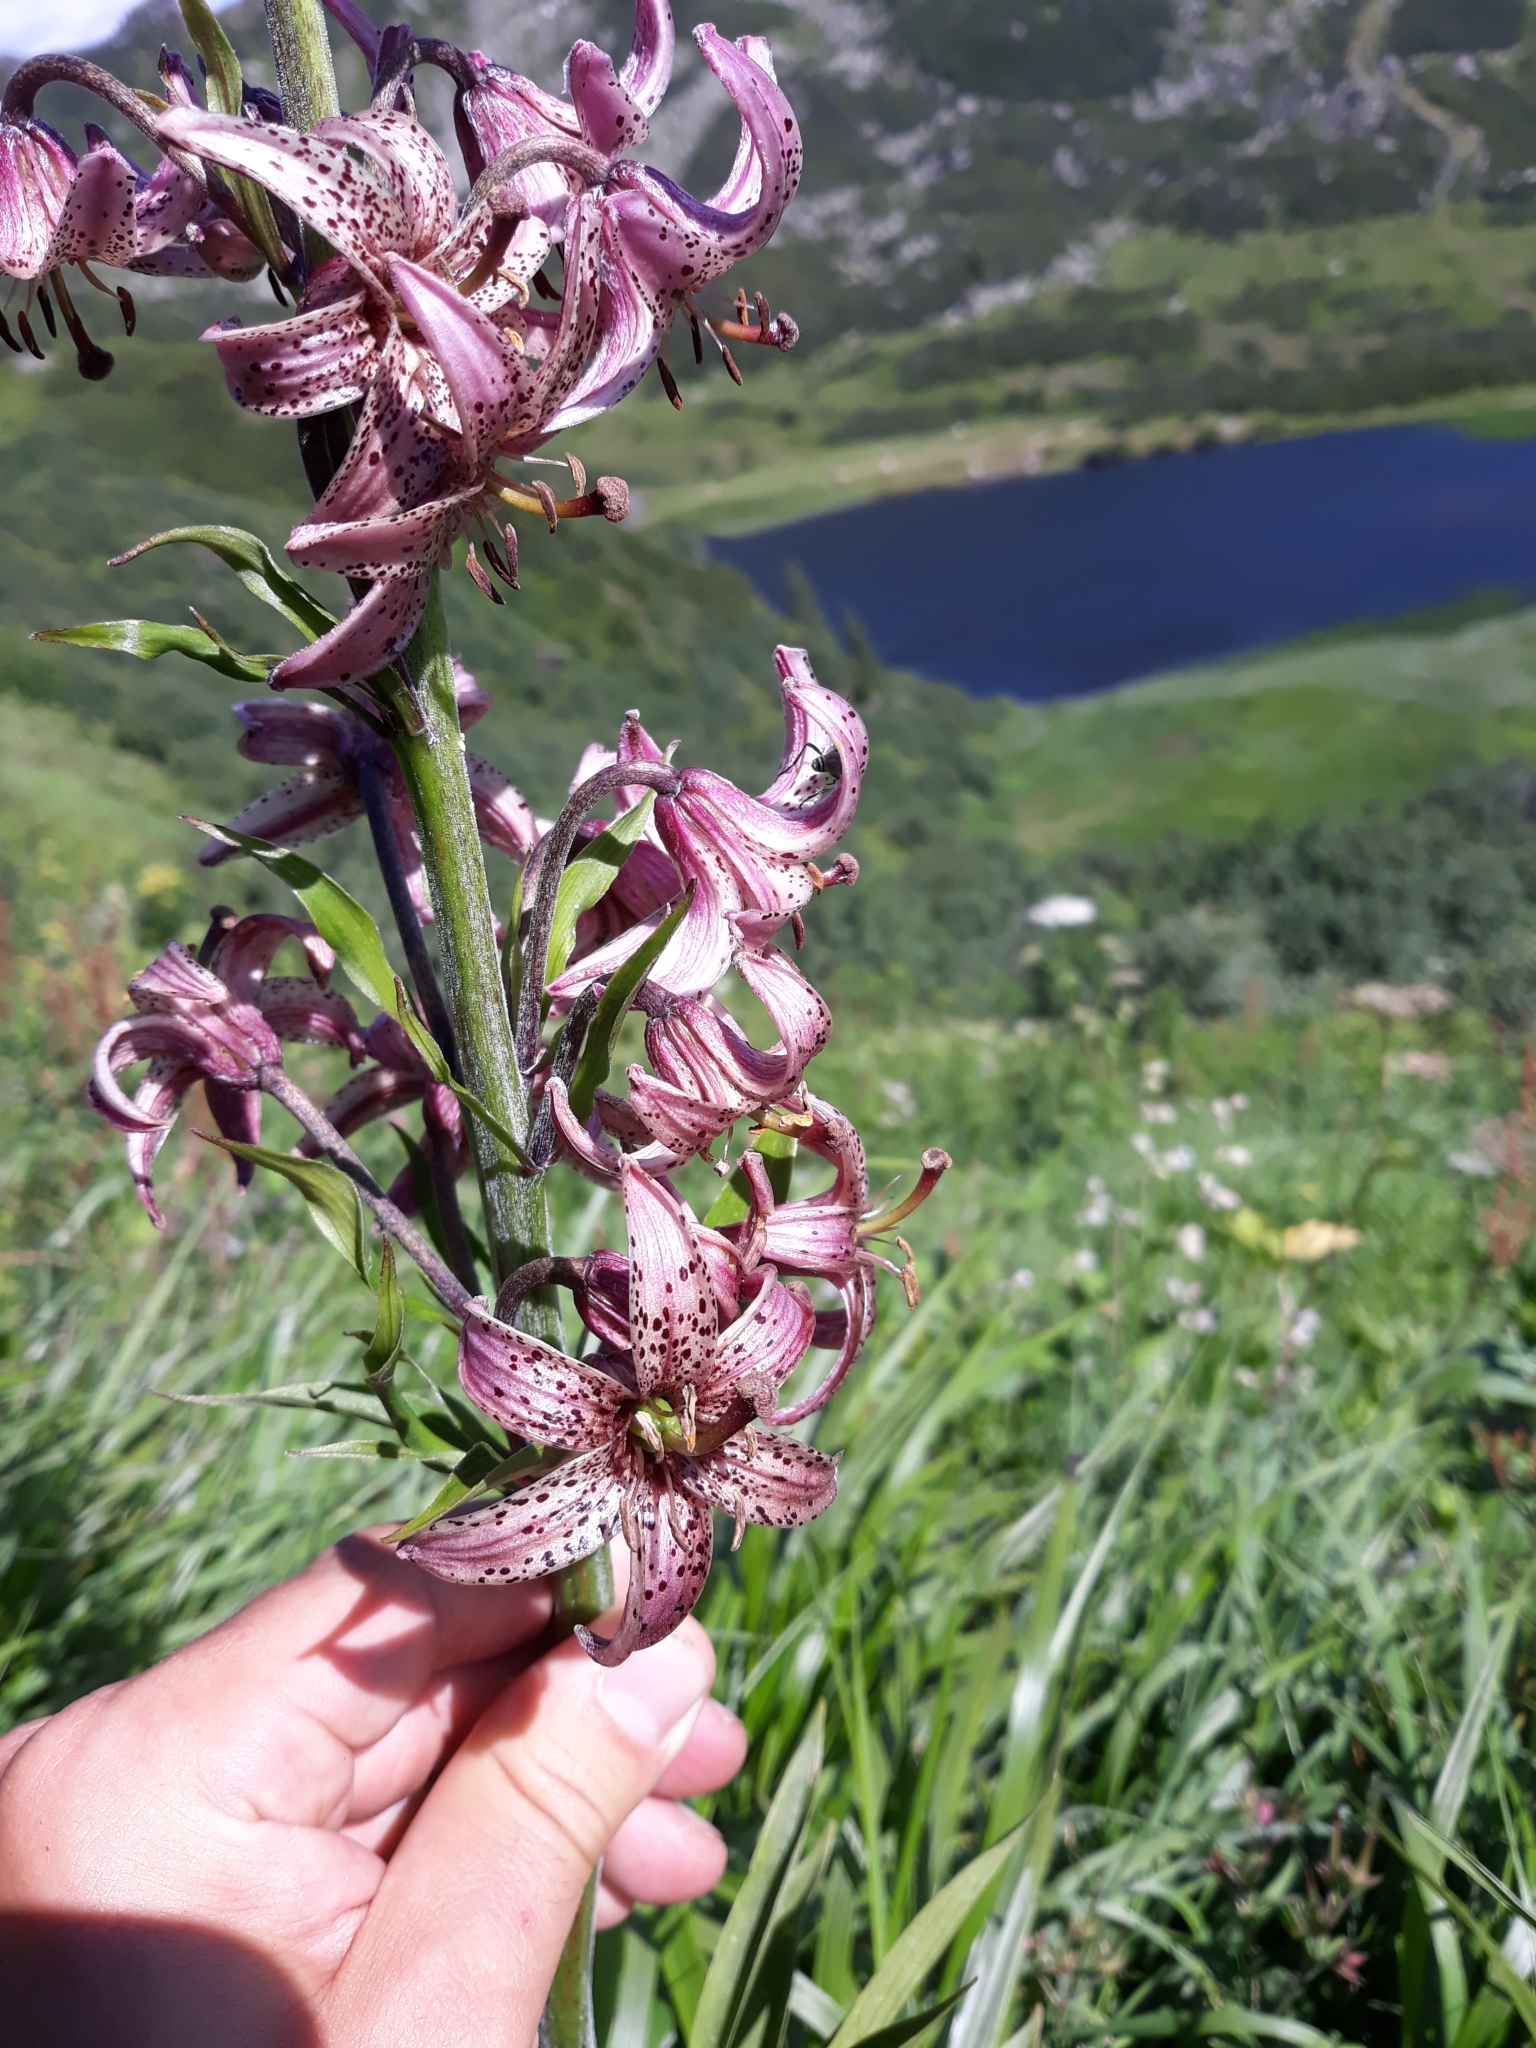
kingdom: Plantae
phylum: Tracheophyta
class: Liliopsida
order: Liliales
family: Liliaceae
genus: Lilium
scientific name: Lilium martagon
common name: Martagon lily
